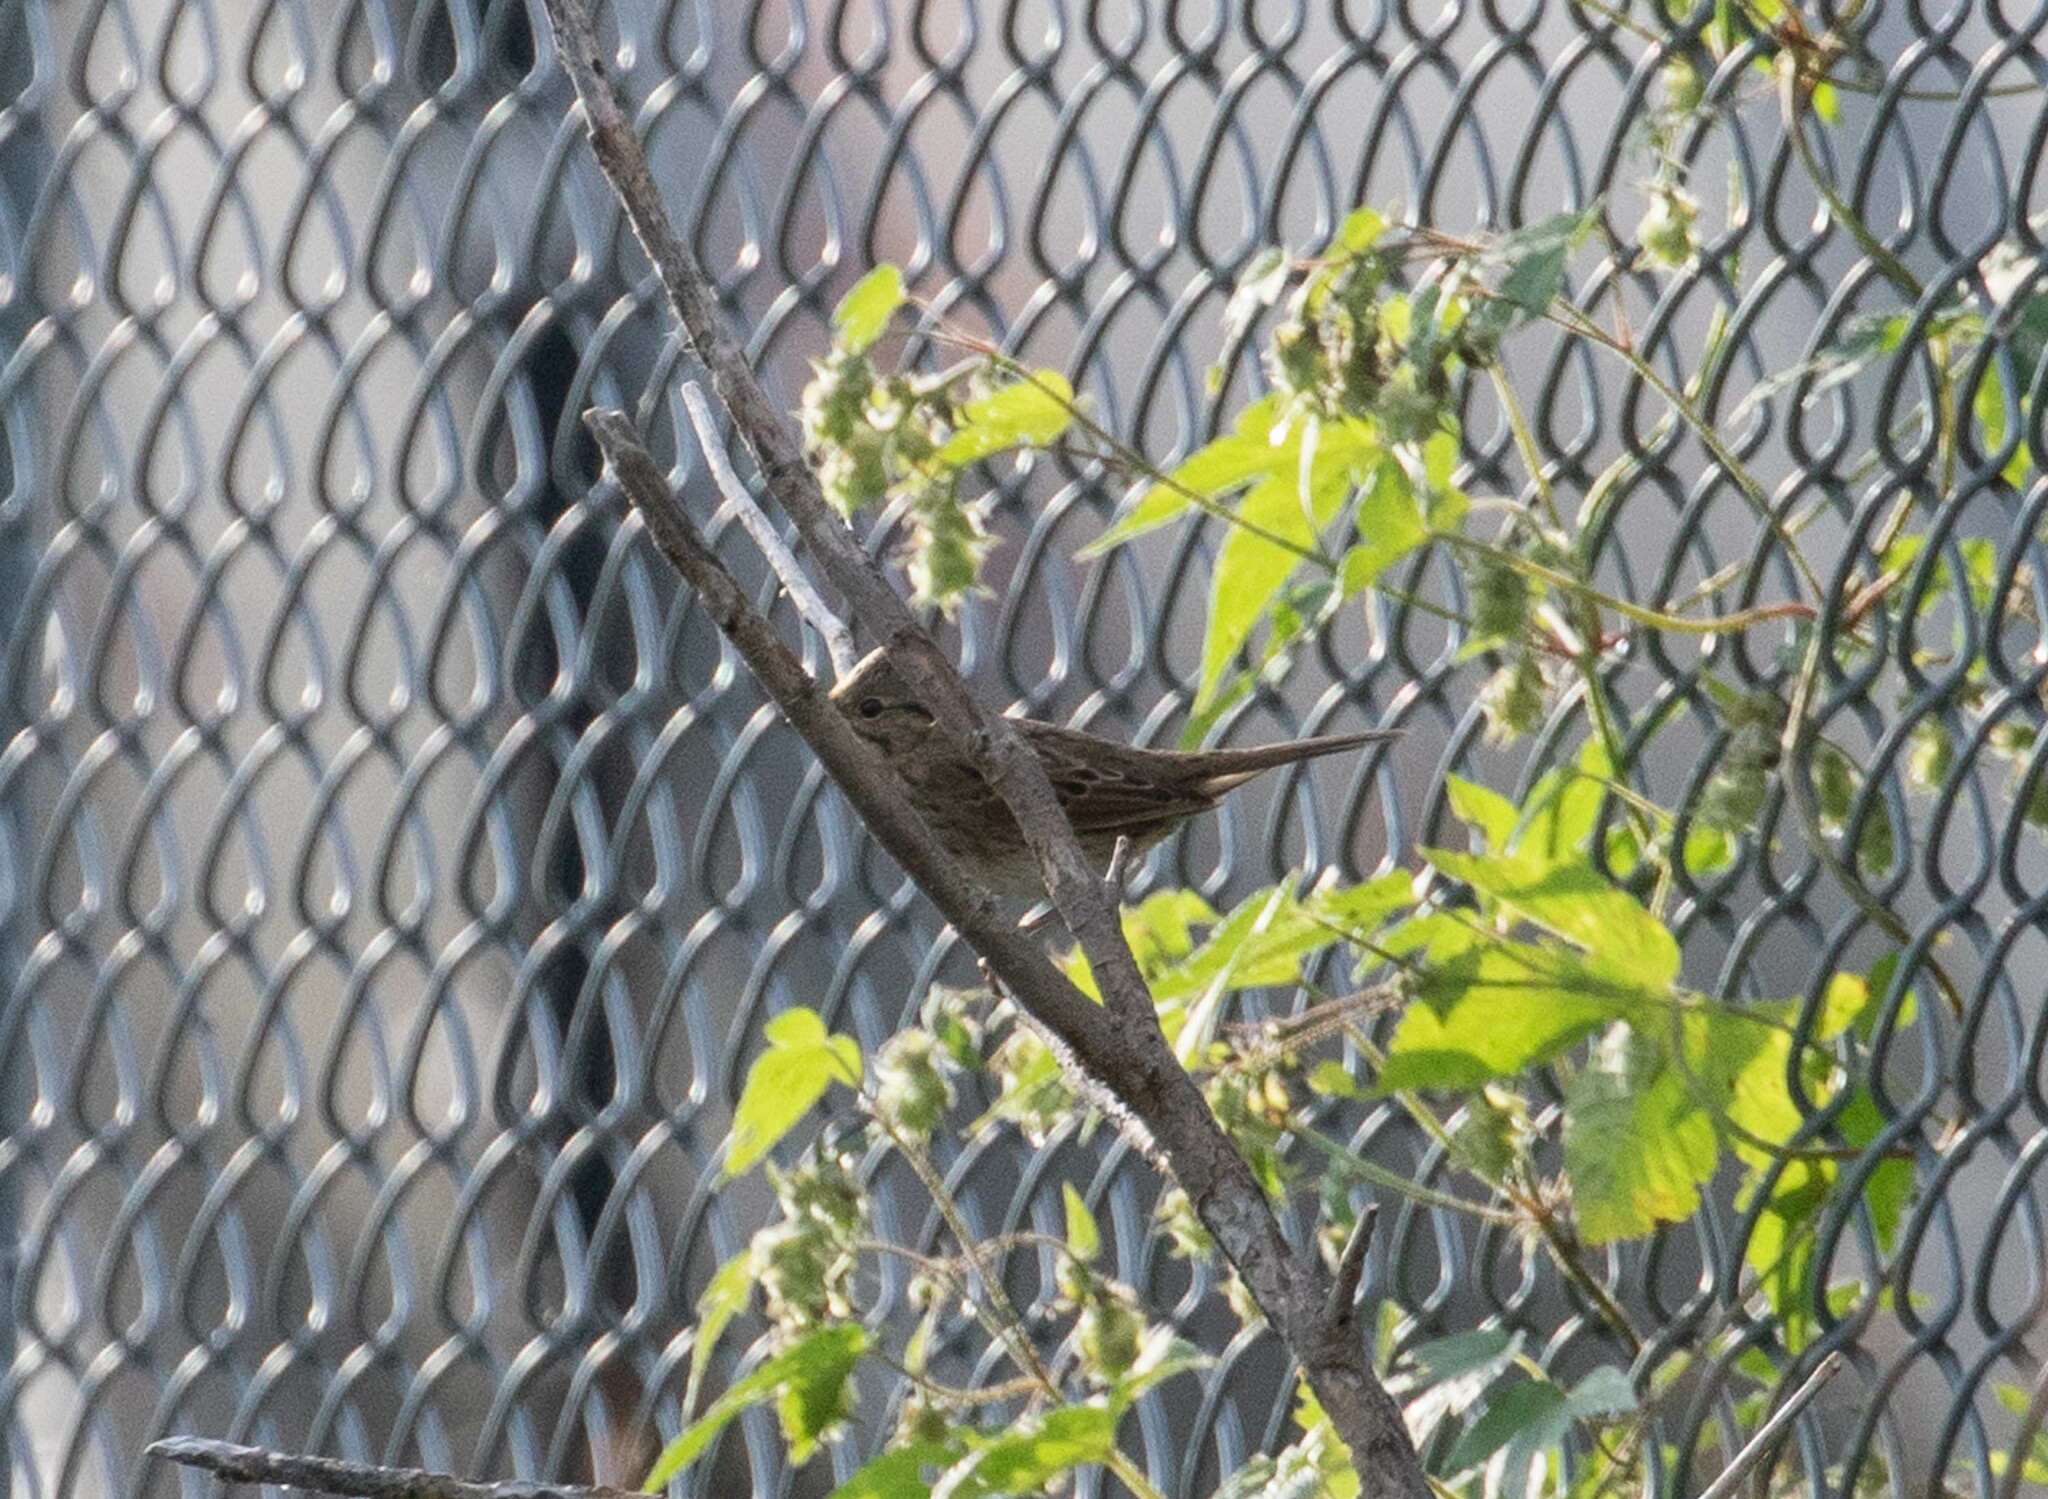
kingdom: Animalia
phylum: Chordata
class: Aves
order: Passeriformes
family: Passerellidae
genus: Melospiza
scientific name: Melospiza lincolnii
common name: Lincoln's sparrow
